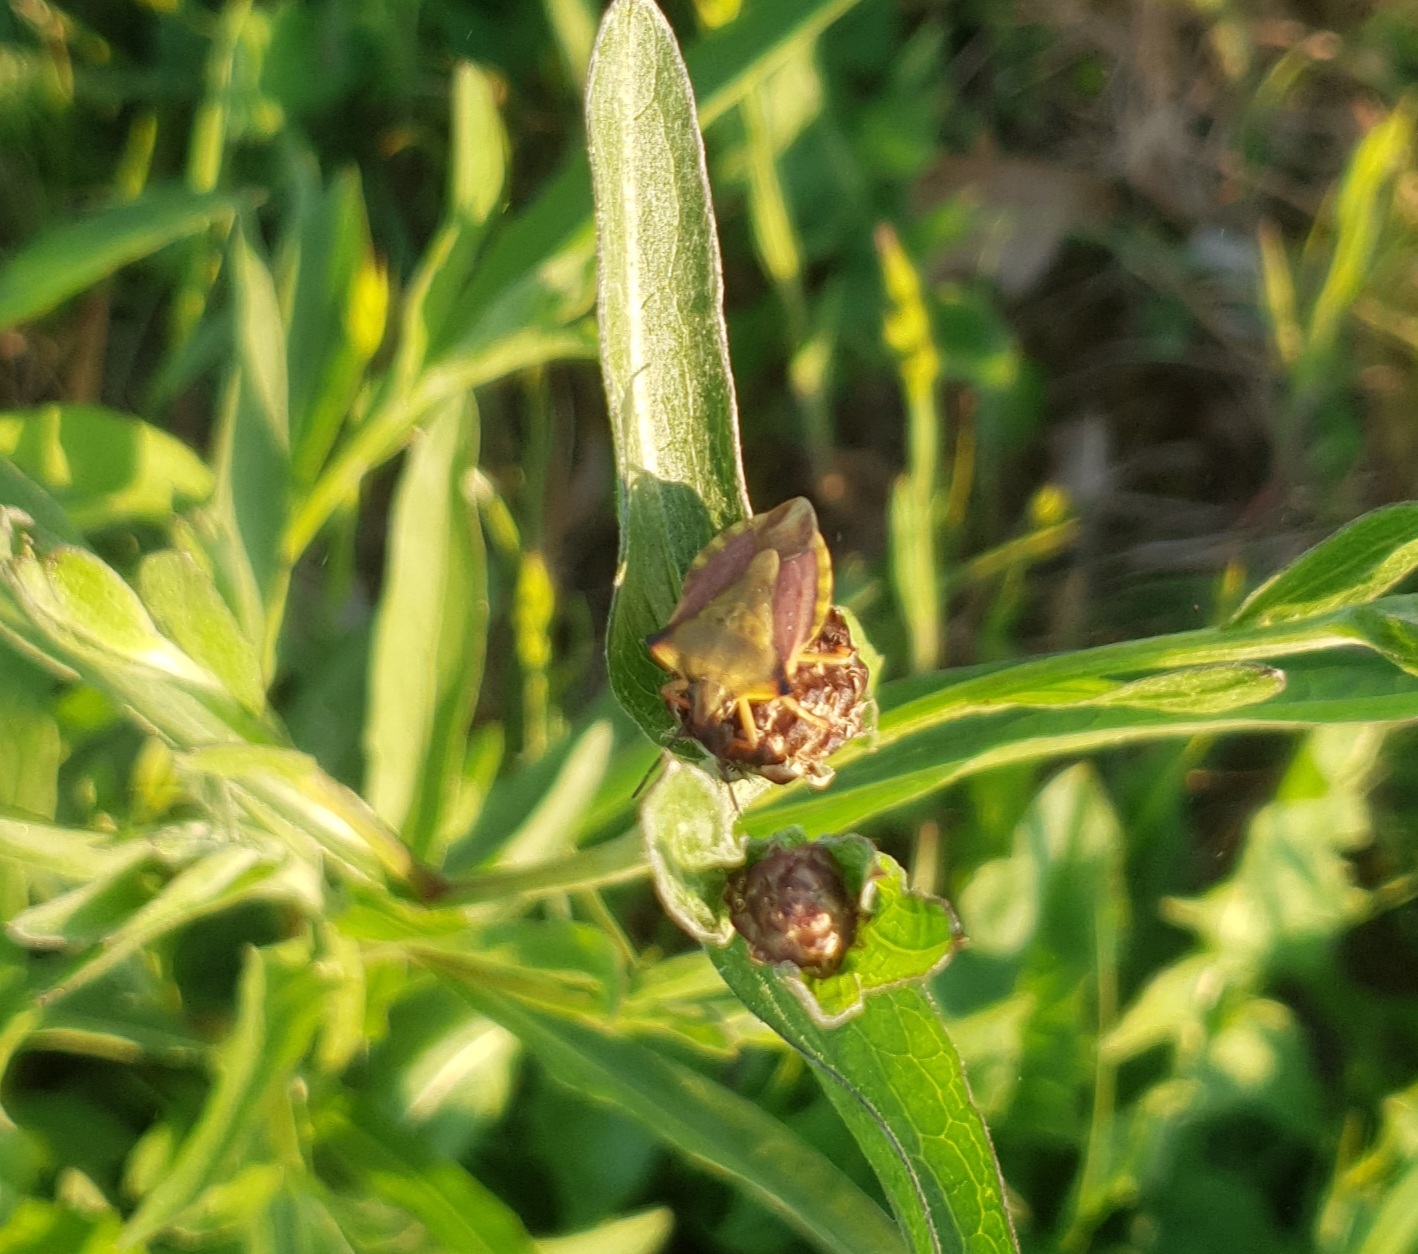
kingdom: Animalia
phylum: Arthropoda
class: Insecta
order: Hemiptera
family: Pentatomidae
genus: Carpocoris
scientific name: Carpocoris fuscispinus
